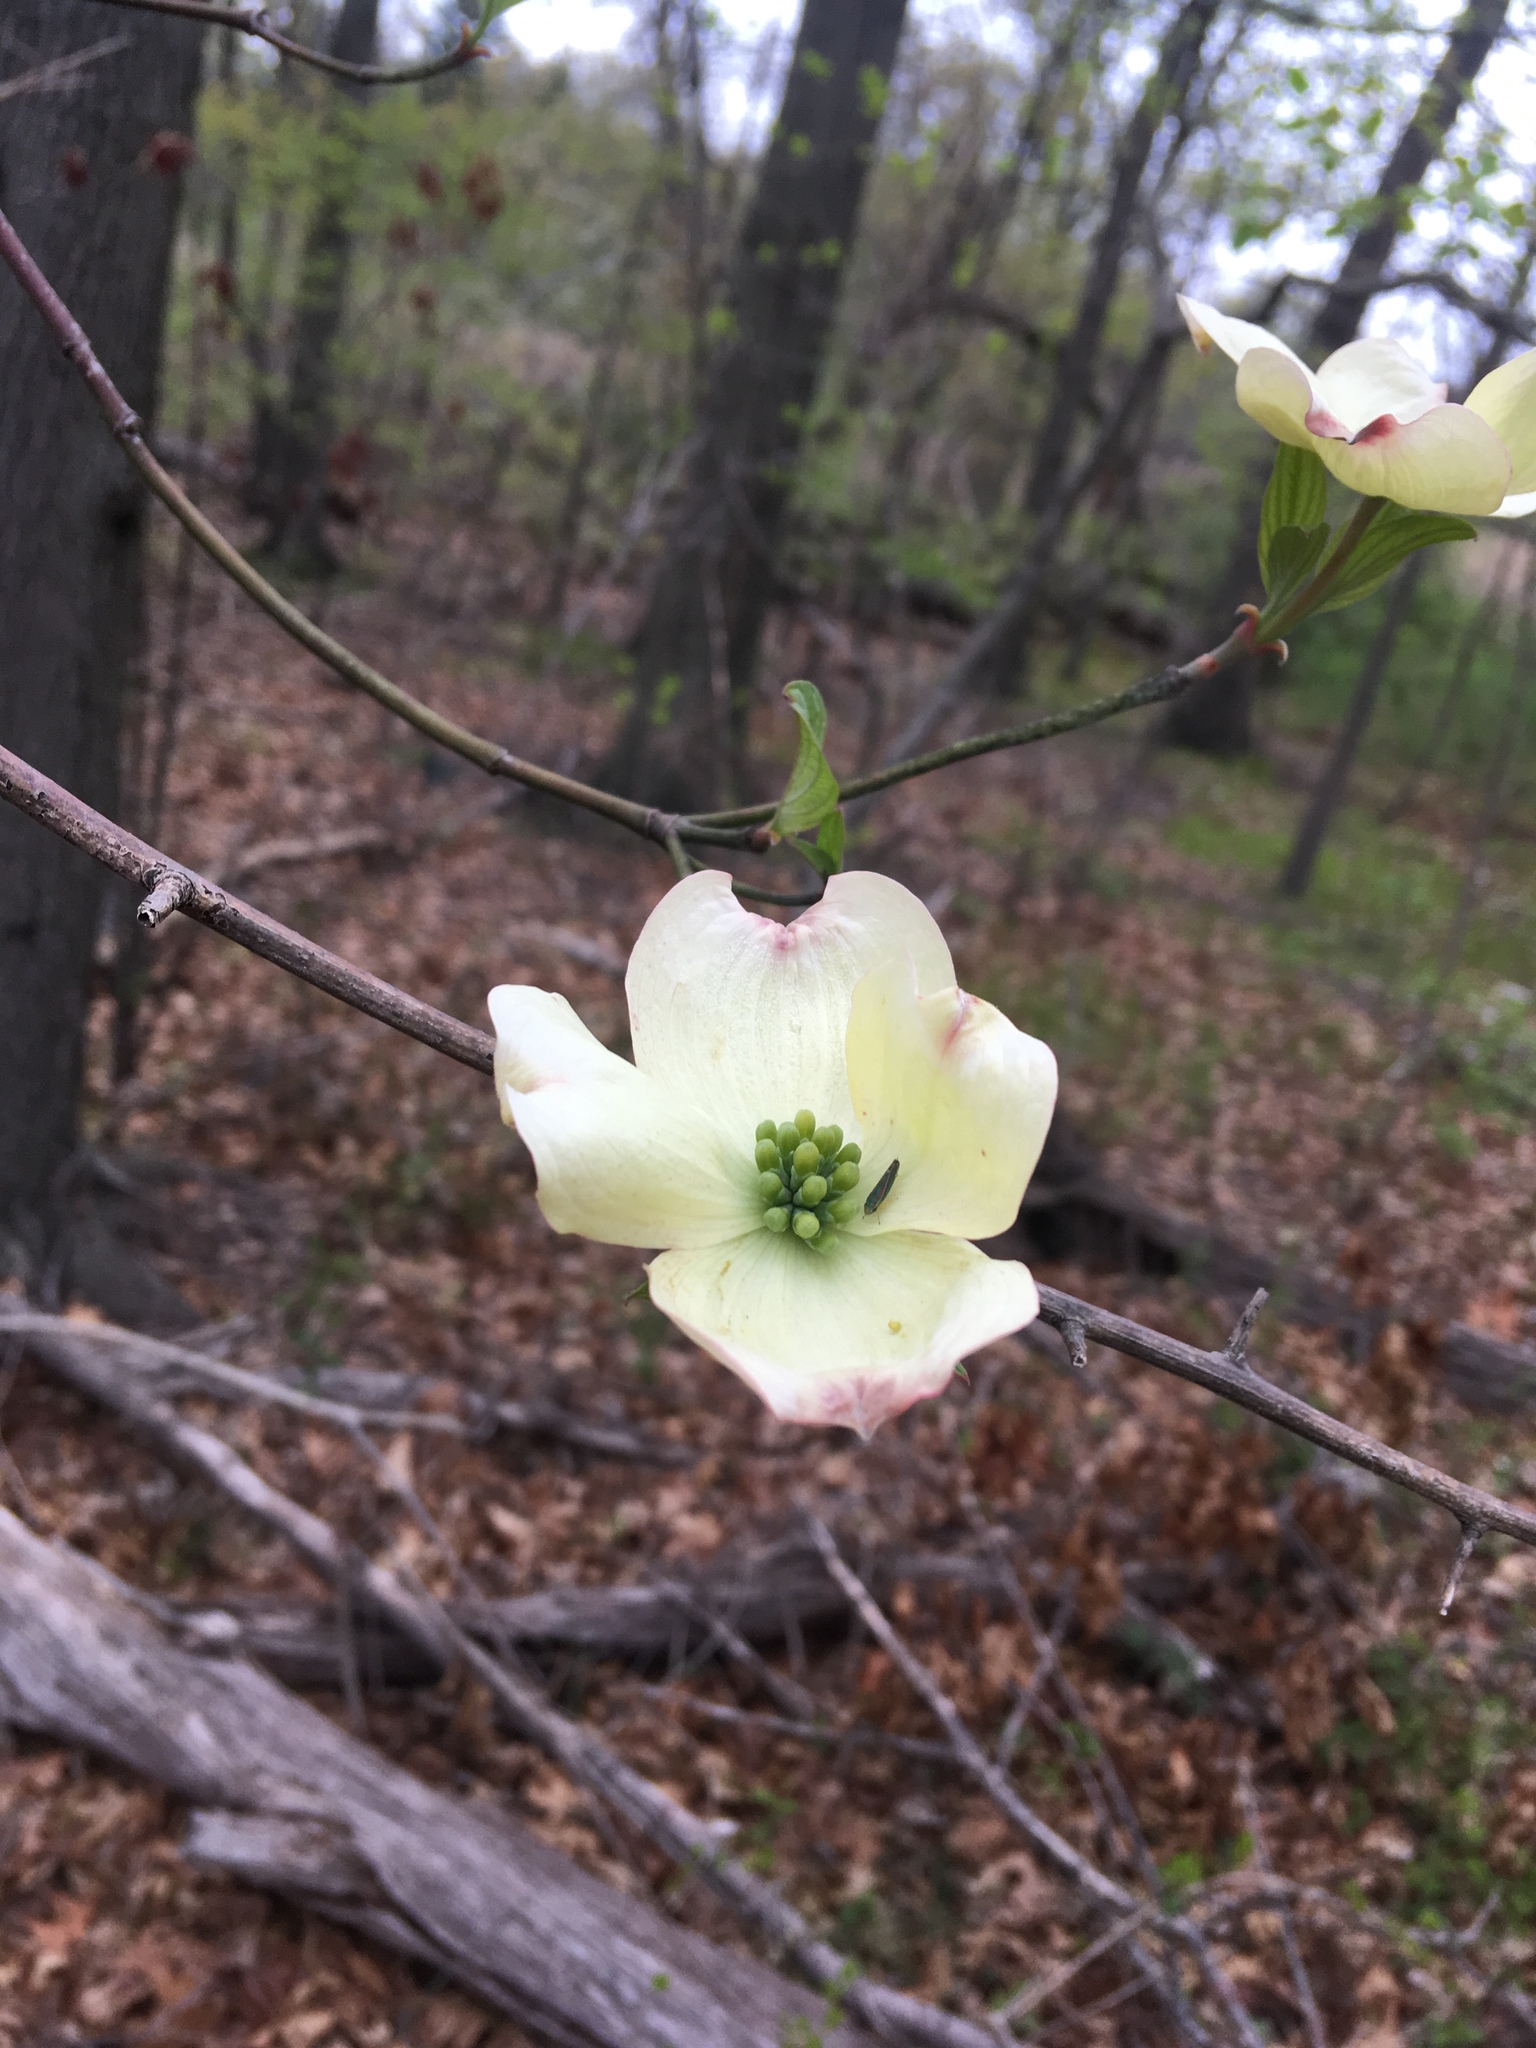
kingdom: Plantae
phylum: Tracheophyta
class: Magnoliopsida
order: Cornales
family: Cornaceae
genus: Cornus
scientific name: Cornus florida
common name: Flowering dogwood
